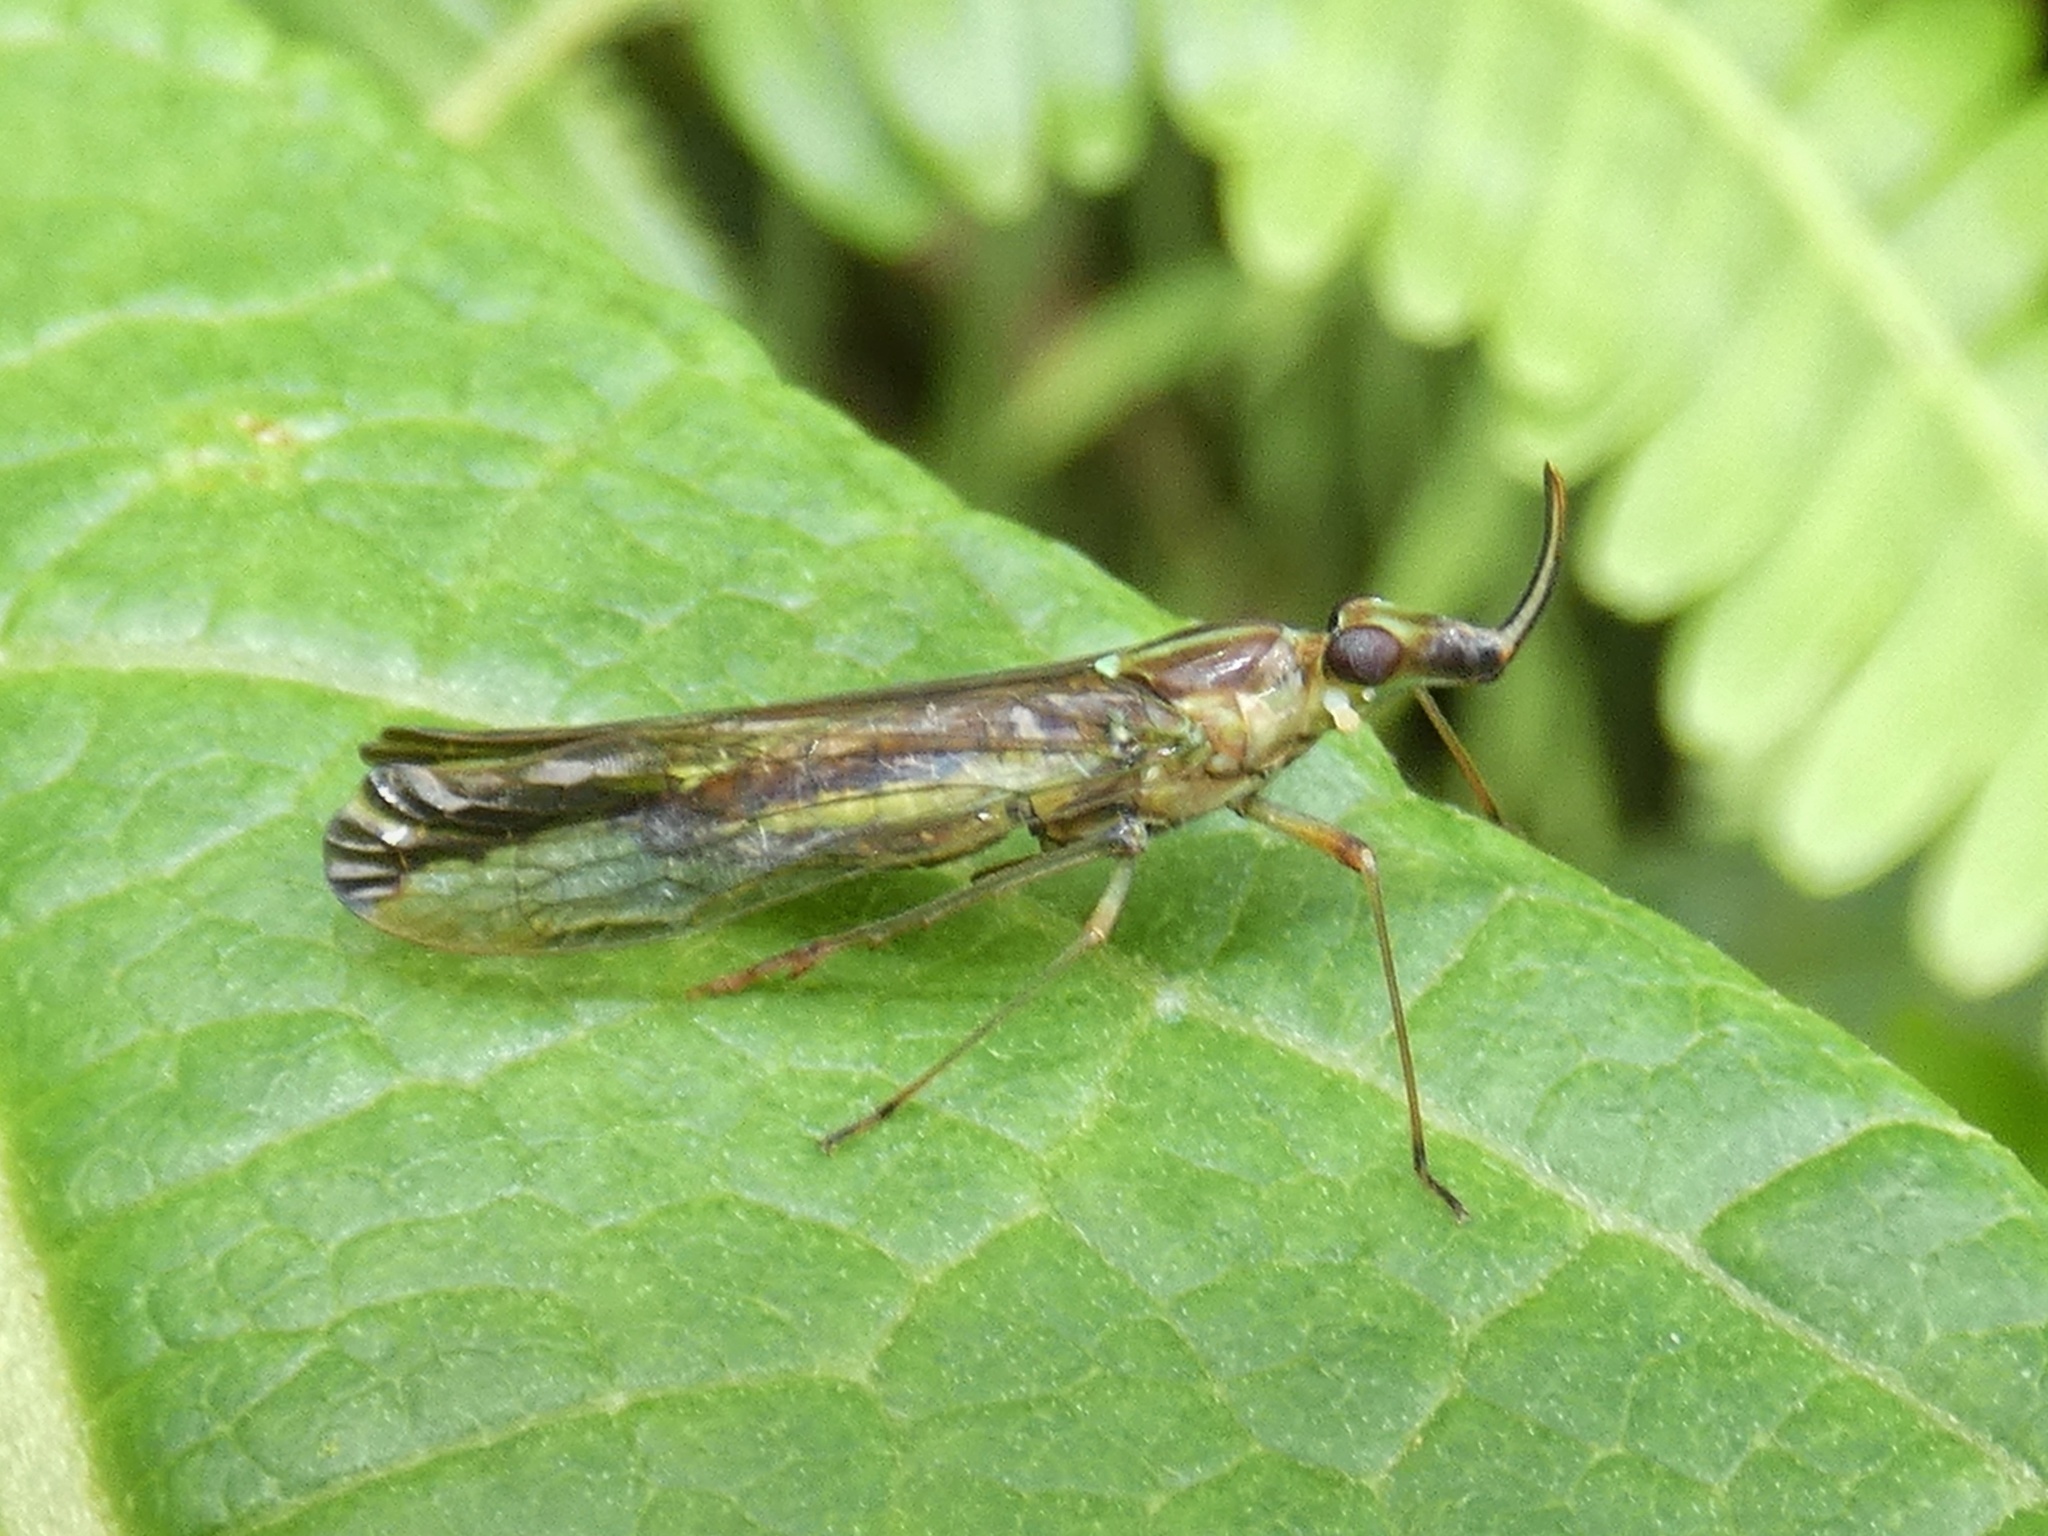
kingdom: Animalia
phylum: Arthropoda
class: Insecta
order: Hemiptera
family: Dictyopharidae
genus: Dictyopharoides
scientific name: Dictyopharoides tenuirostris
